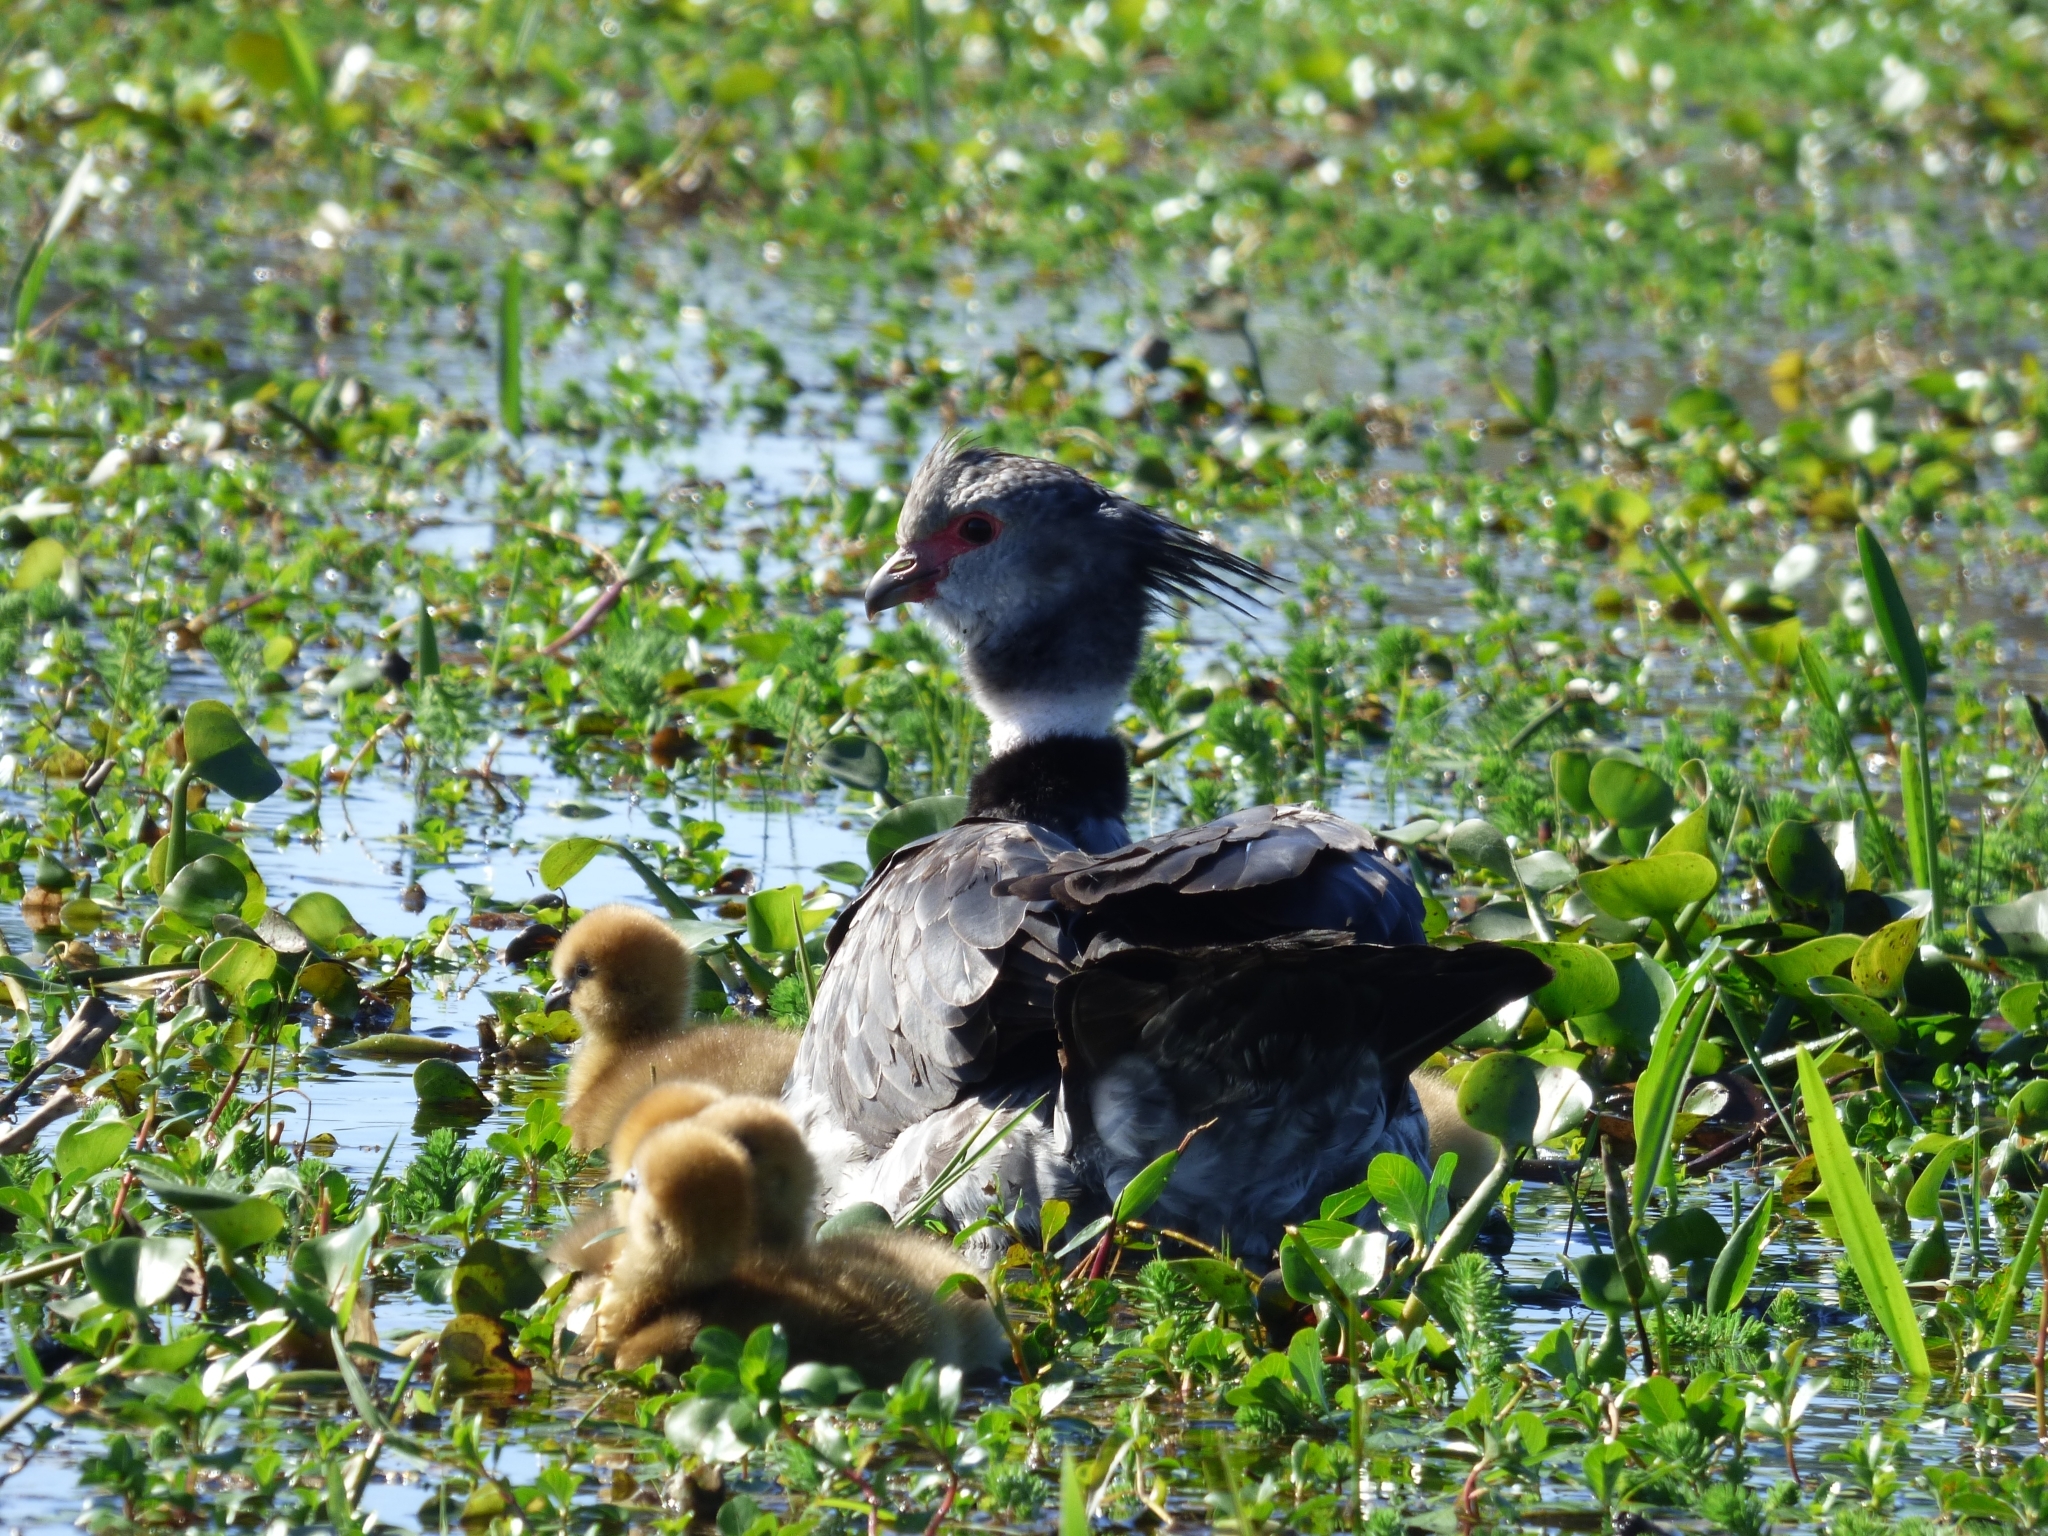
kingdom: Animalia
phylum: Chordata
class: Aves
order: Anseriformes
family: Anhimidae
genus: Chauna
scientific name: Chauna torquata
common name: Southern screamer
